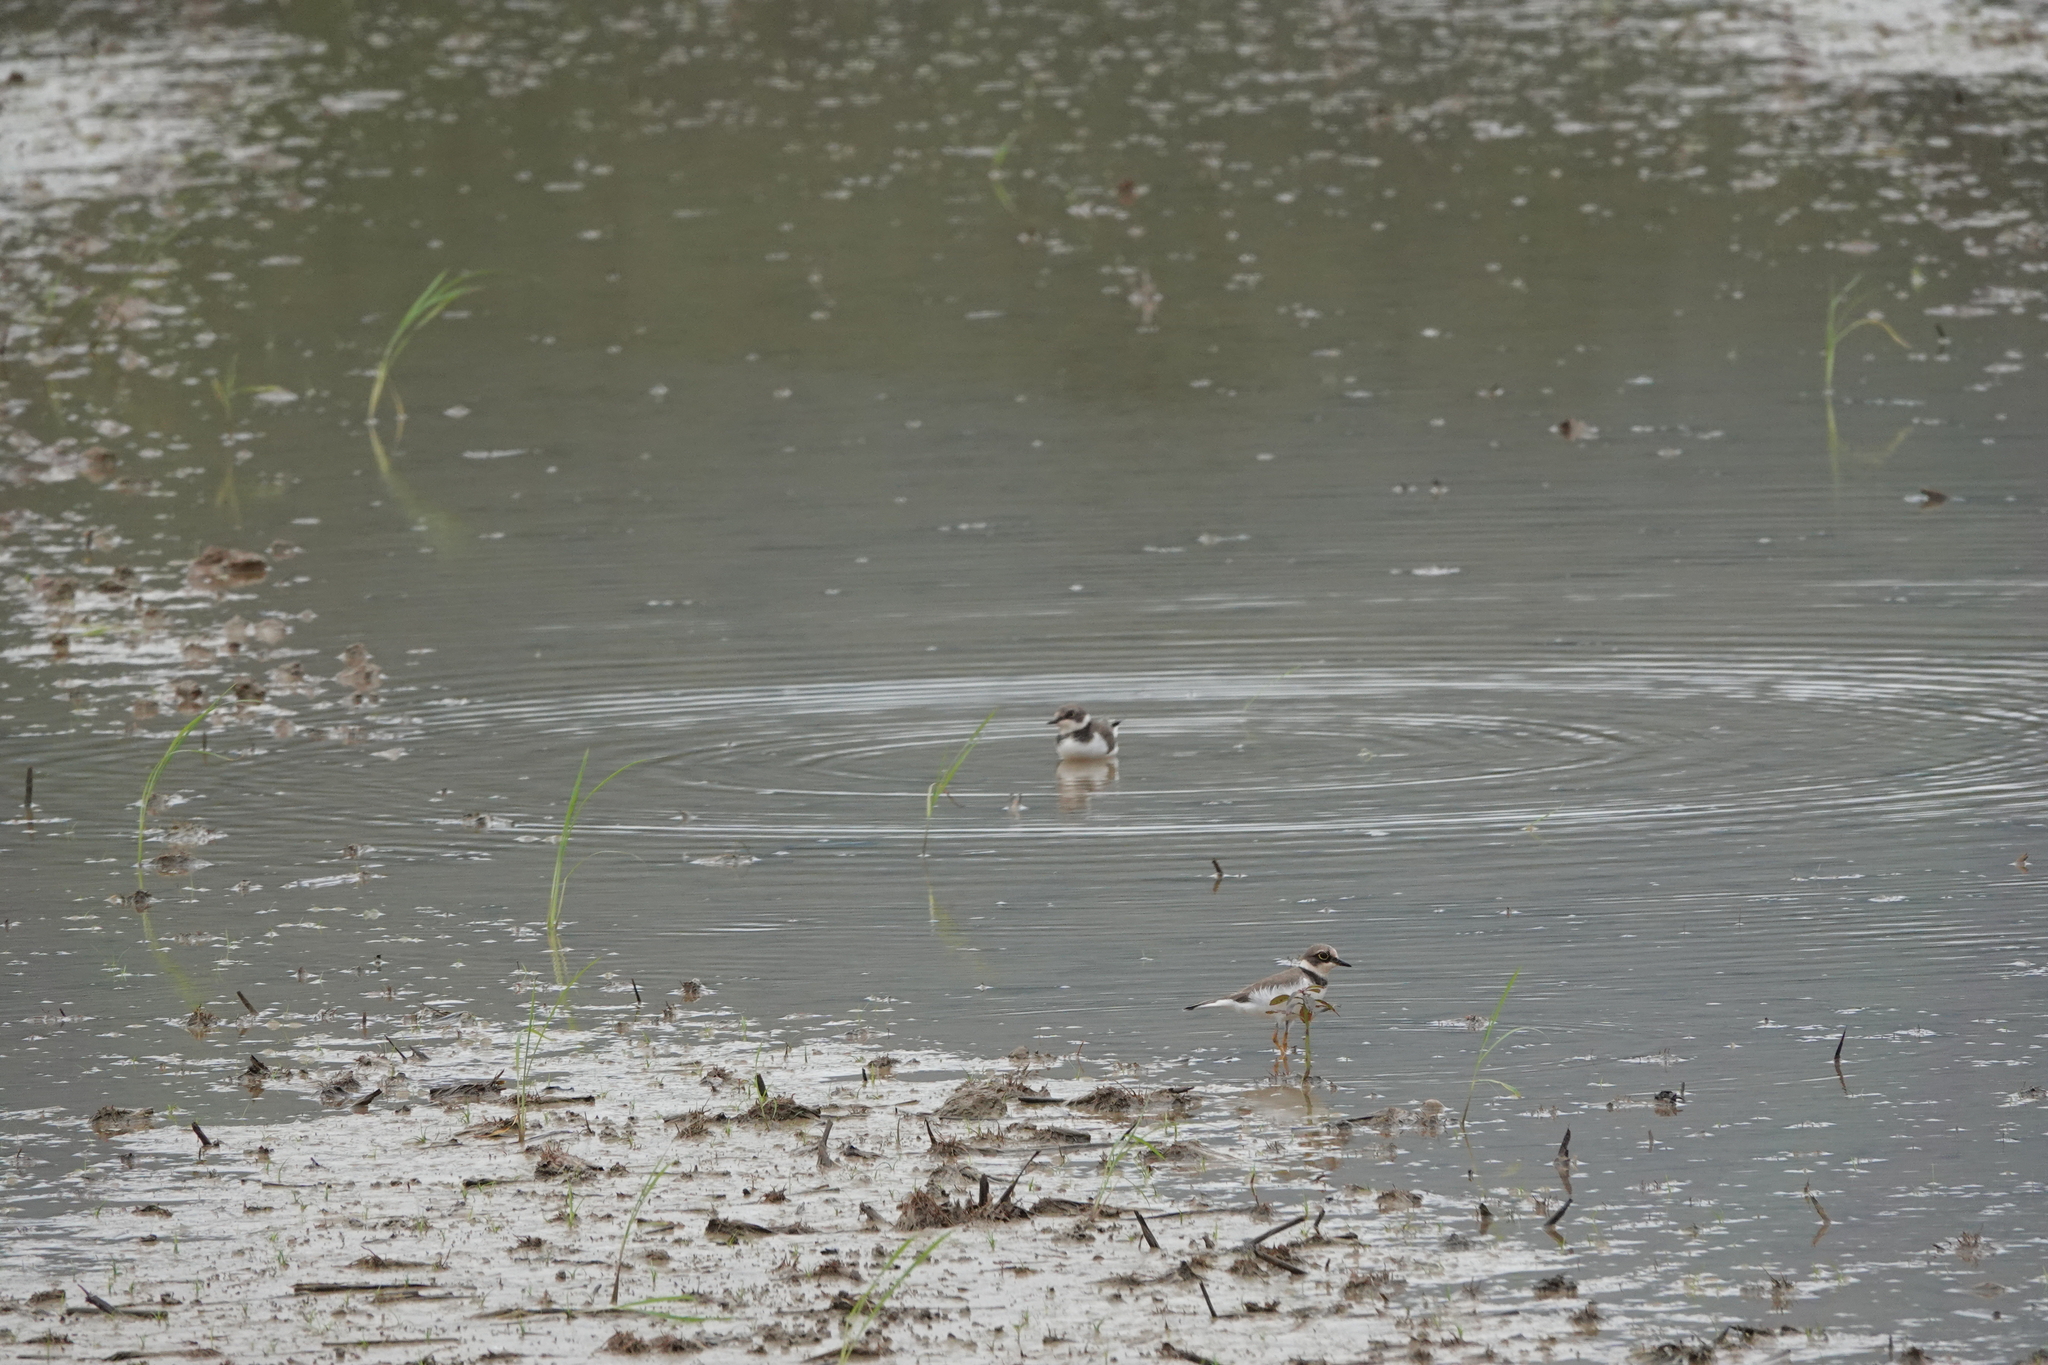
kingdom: Animalia
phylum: Chordata
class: Aves
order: Charadriiformes
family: Charadriidae
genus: Charadrius
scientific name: Charadrius dubius
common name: Little ringed plover
